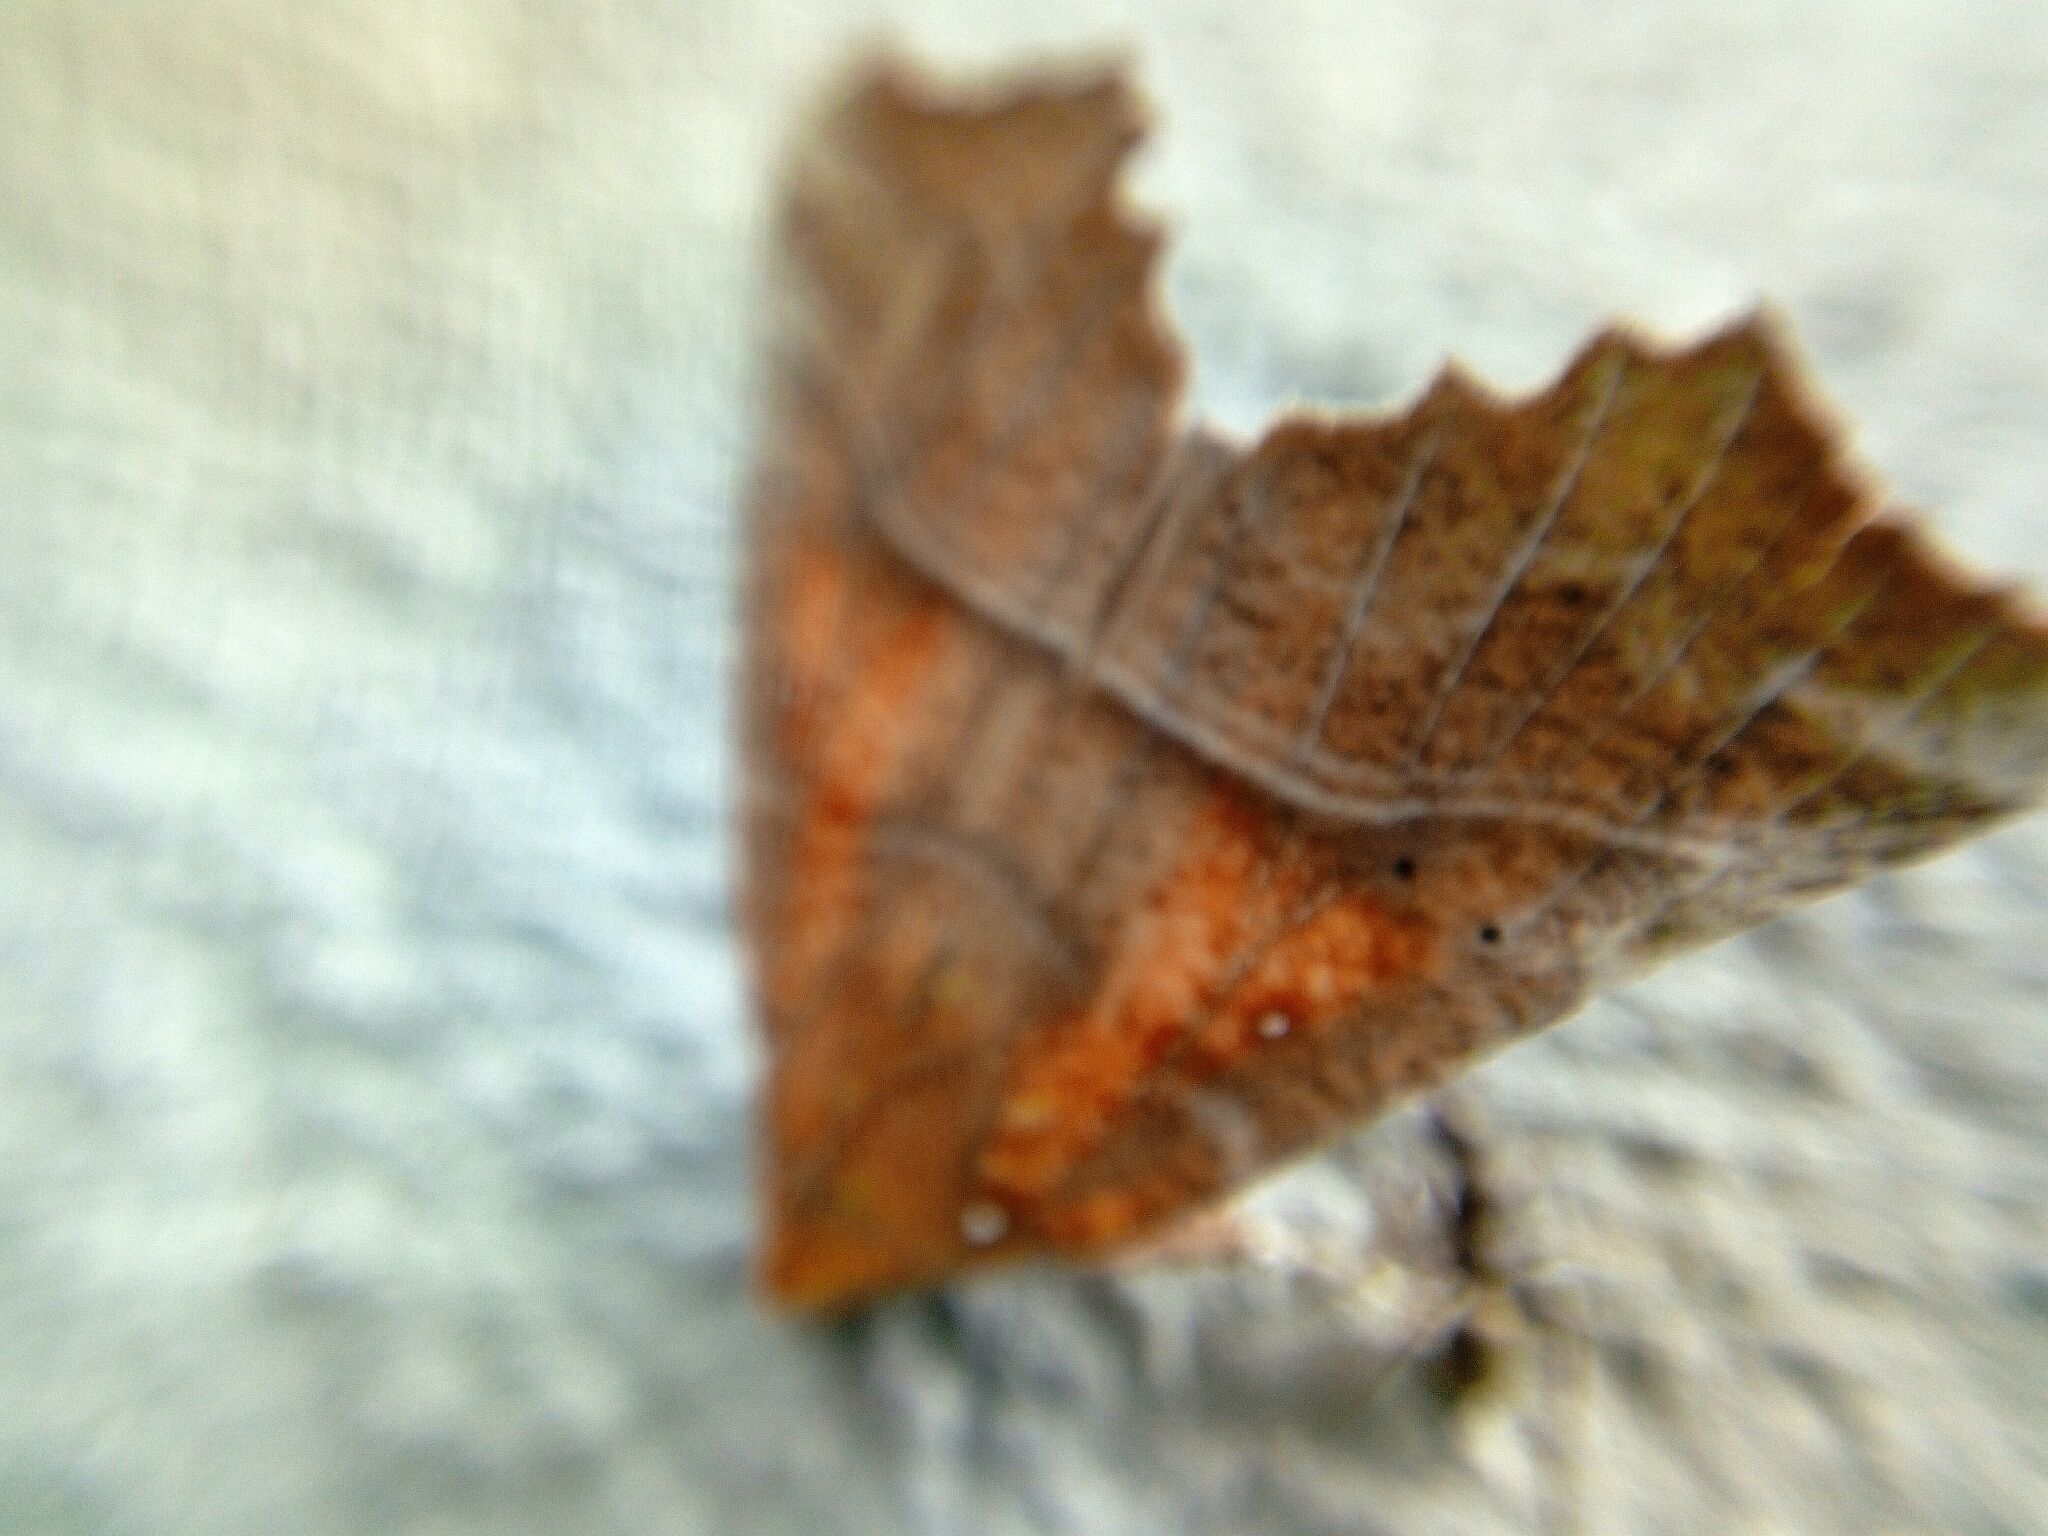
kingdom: Animalia
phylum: Arthropoda
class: Insecta
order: Lepidoptera
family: Erebidae
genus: Scoliopteryx
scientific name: Scoliopteryx libatrix
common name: Herald
